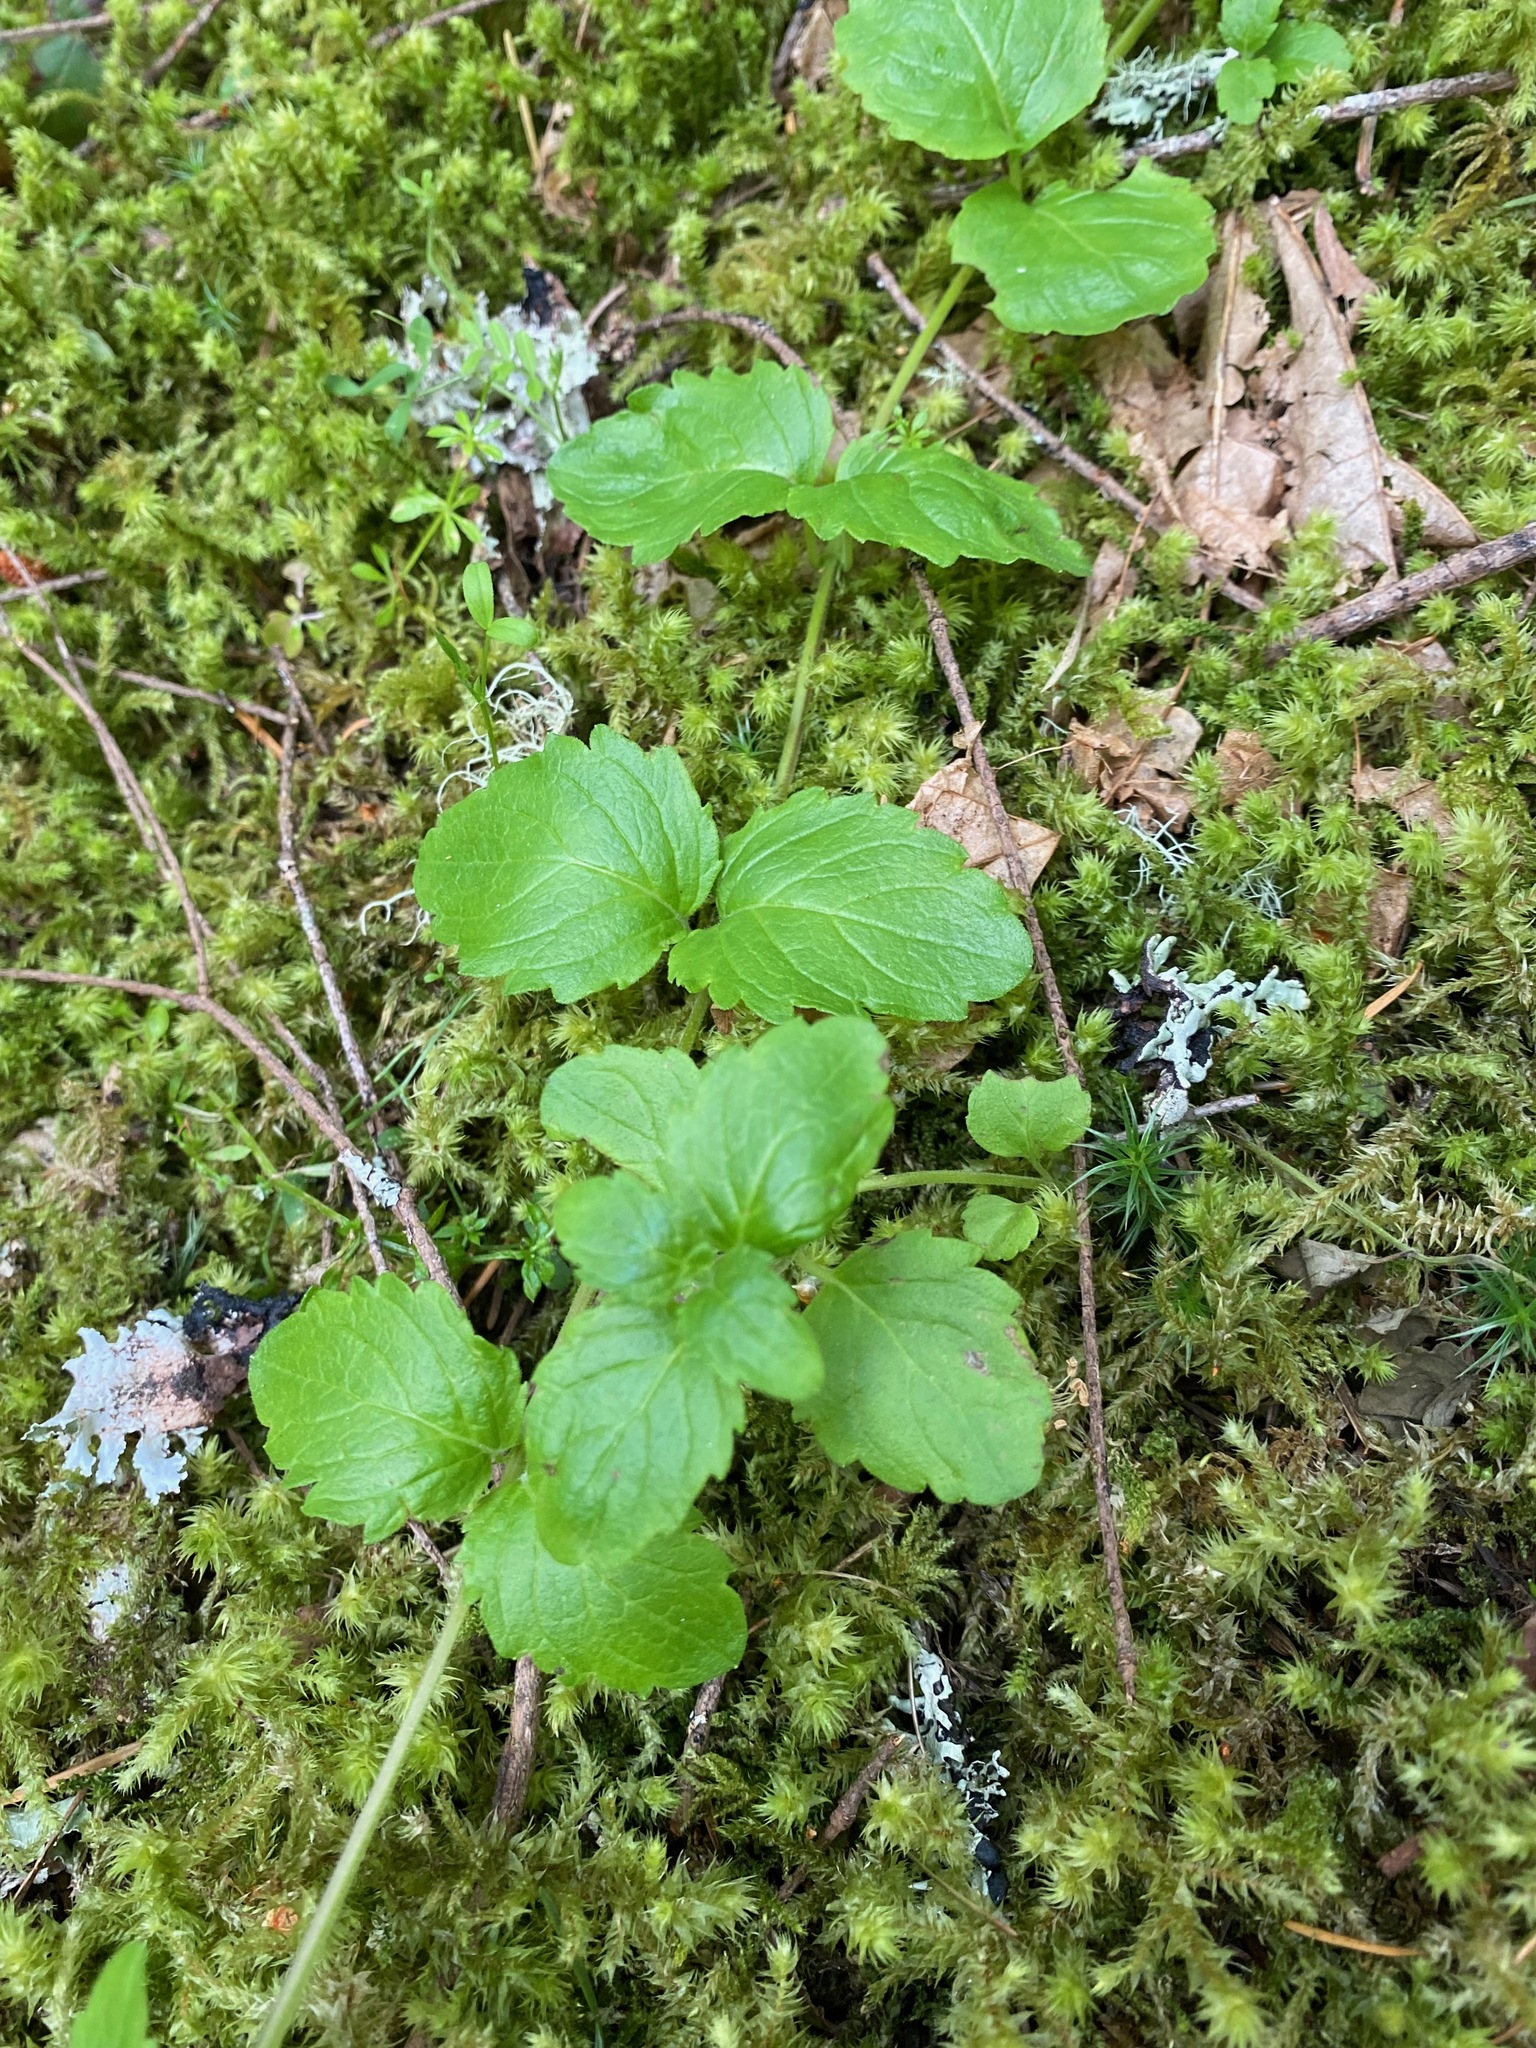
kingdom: Plantae
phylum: Tracheophyta
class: Magnoliopsida
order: Lamiales
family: Lamiaceae
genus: Micromeria
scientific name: Micromeria douglasii
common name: Yerba buena
